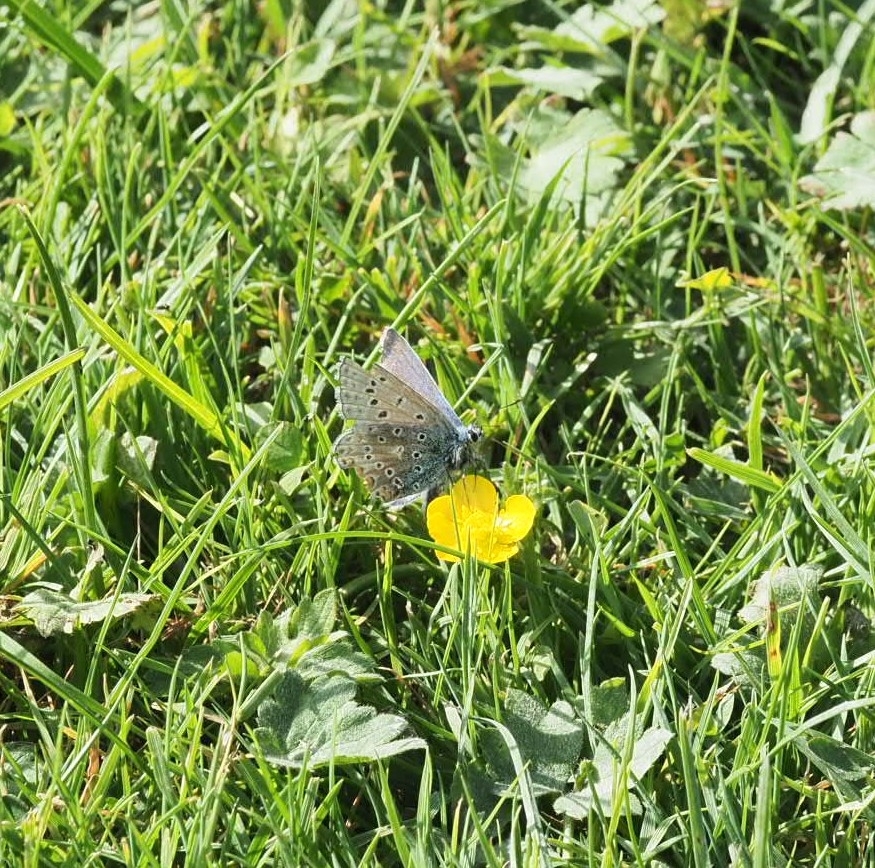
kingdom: Animalia
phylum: Arthropoda
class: Insecta
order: Lepidoptera
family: Lycaenidae
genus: Polyommatus
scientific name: Polyommatus icarus
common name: Common blue
